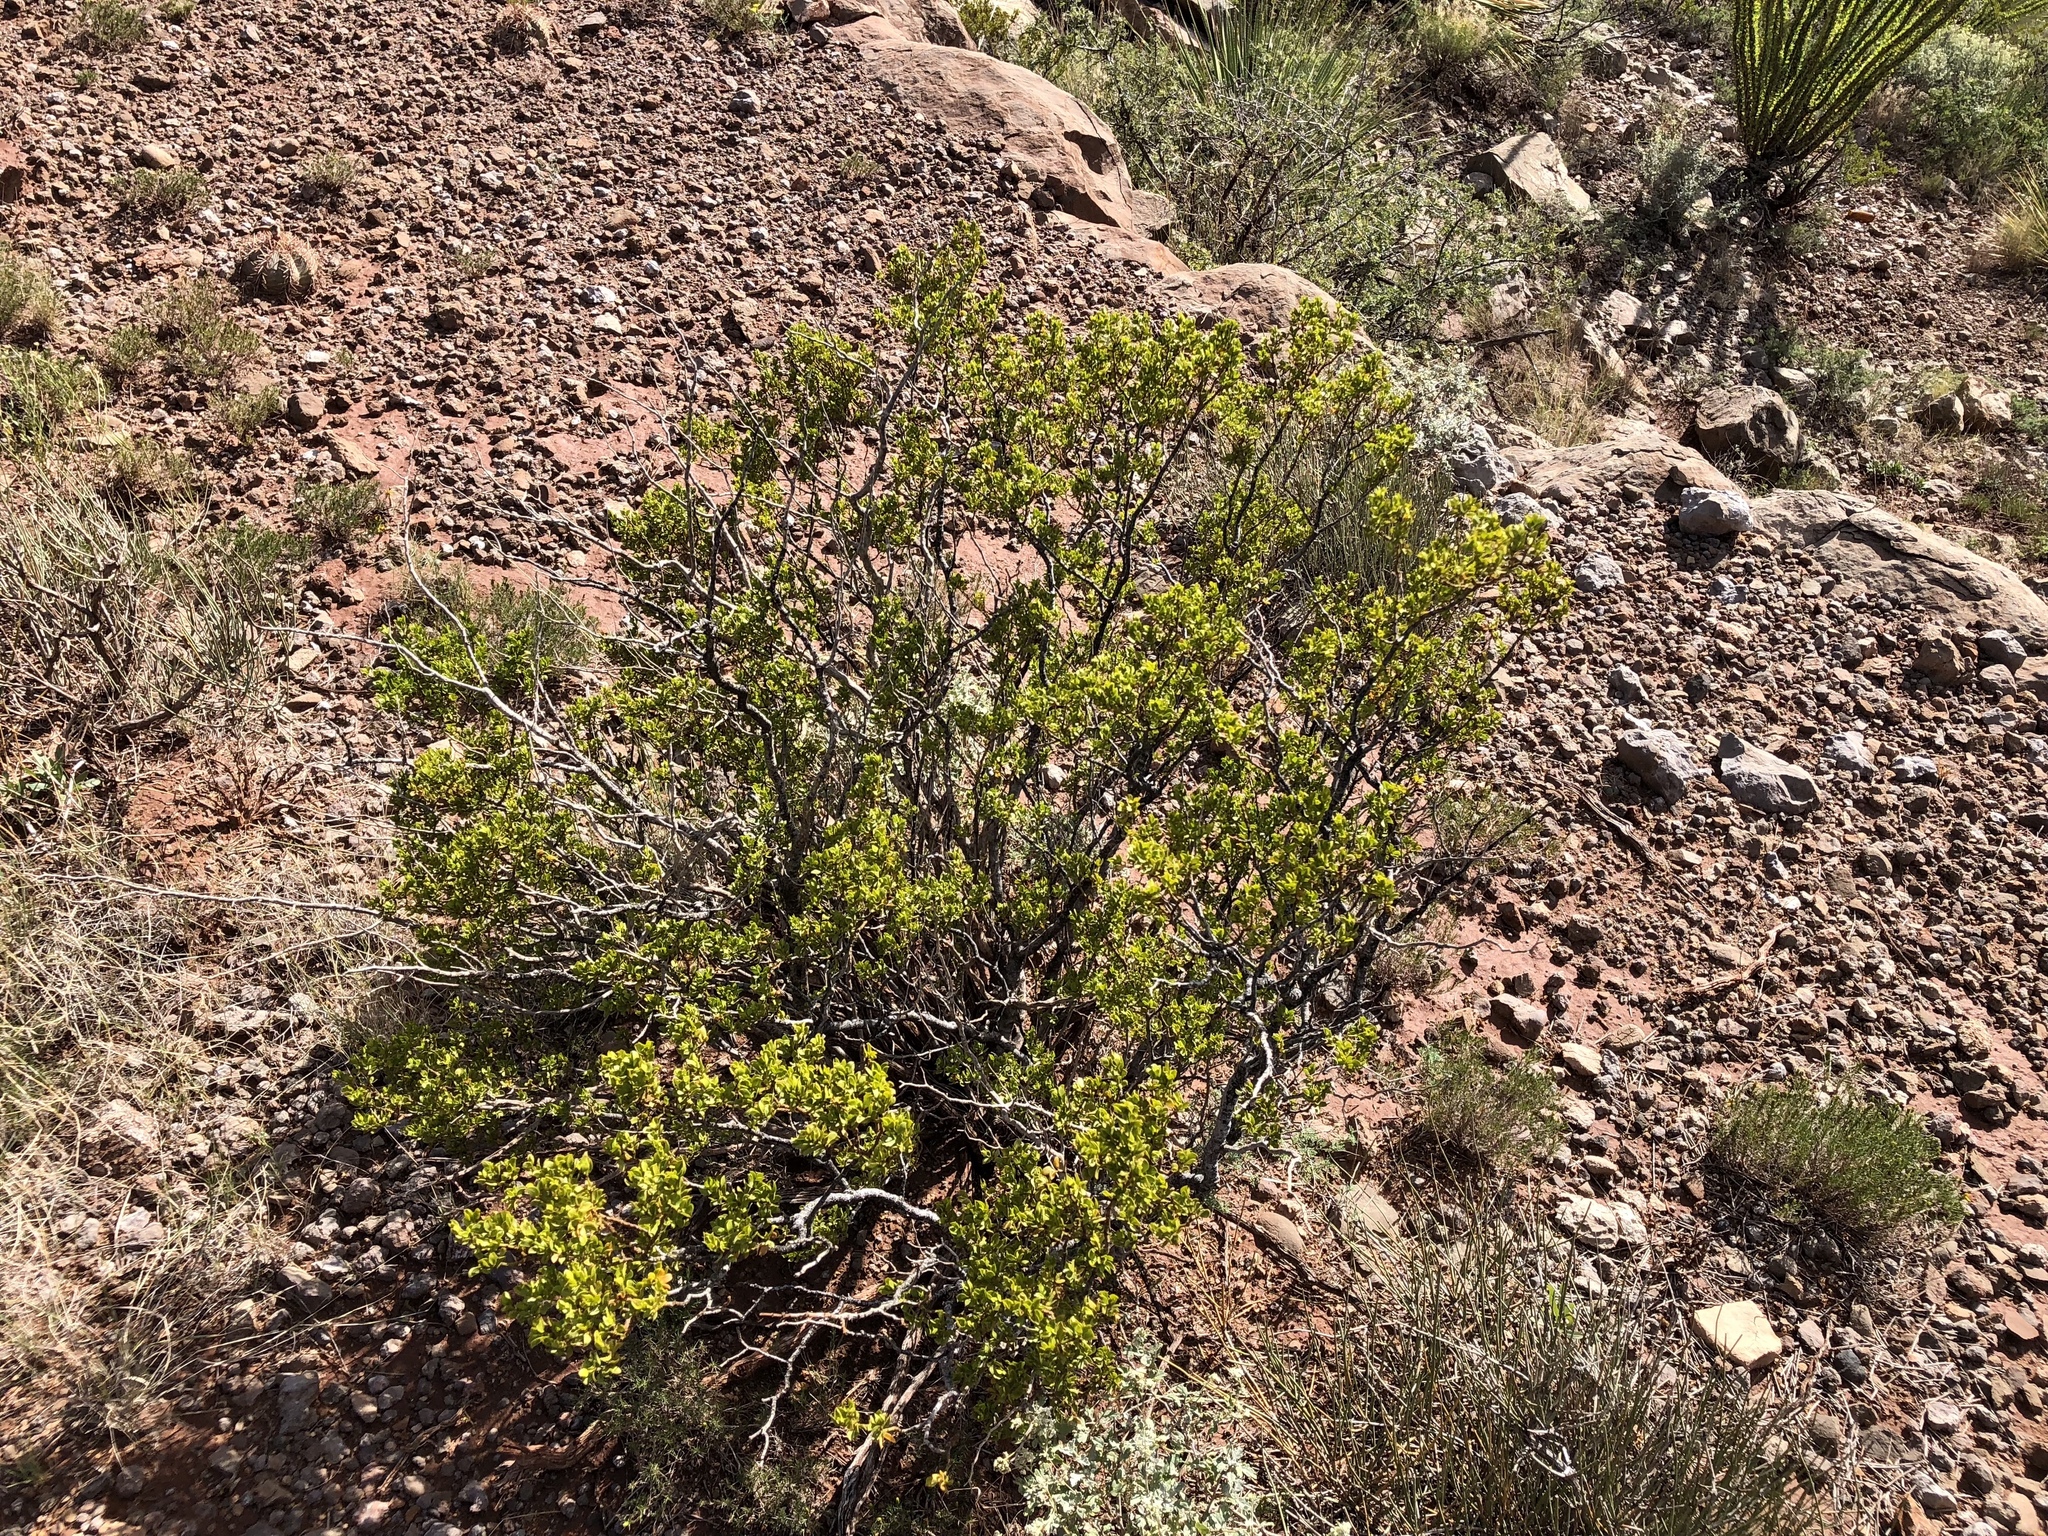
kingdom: Plantae
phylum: Tracheophyta
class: Magnoliopsida
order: Zygophyllales
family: Zygophyllaceae
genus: Larrea
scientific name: Larrea tridentata
